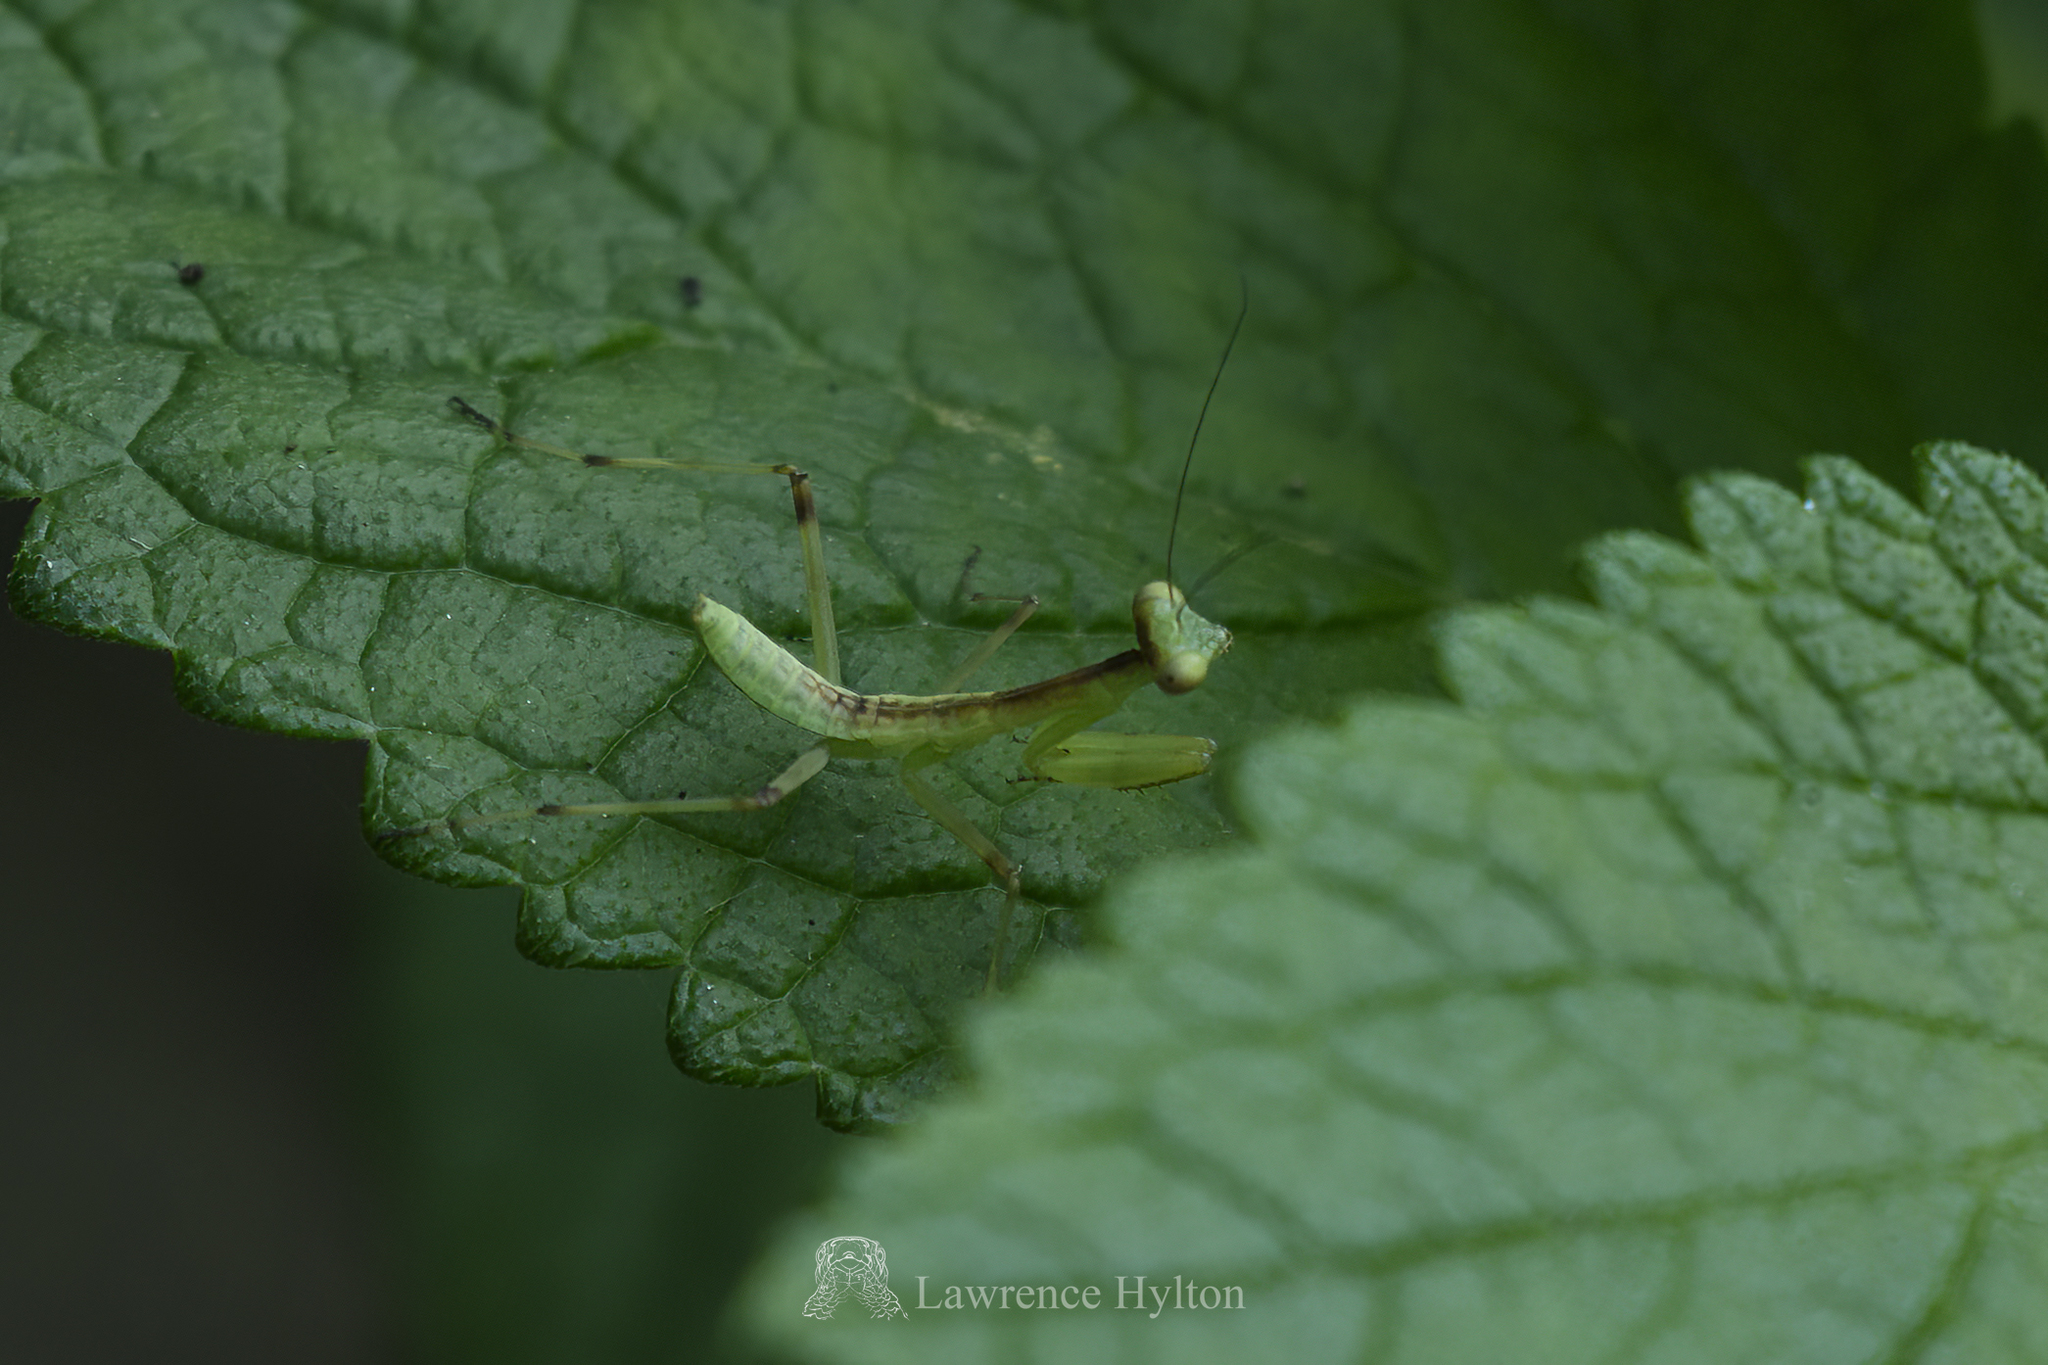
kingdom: Animalia
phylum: Arthropoda
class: Insecta
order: Mantodea
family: Mantidae
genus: Hierodula
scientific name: Hierodula patellifera
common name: Asian mantis
